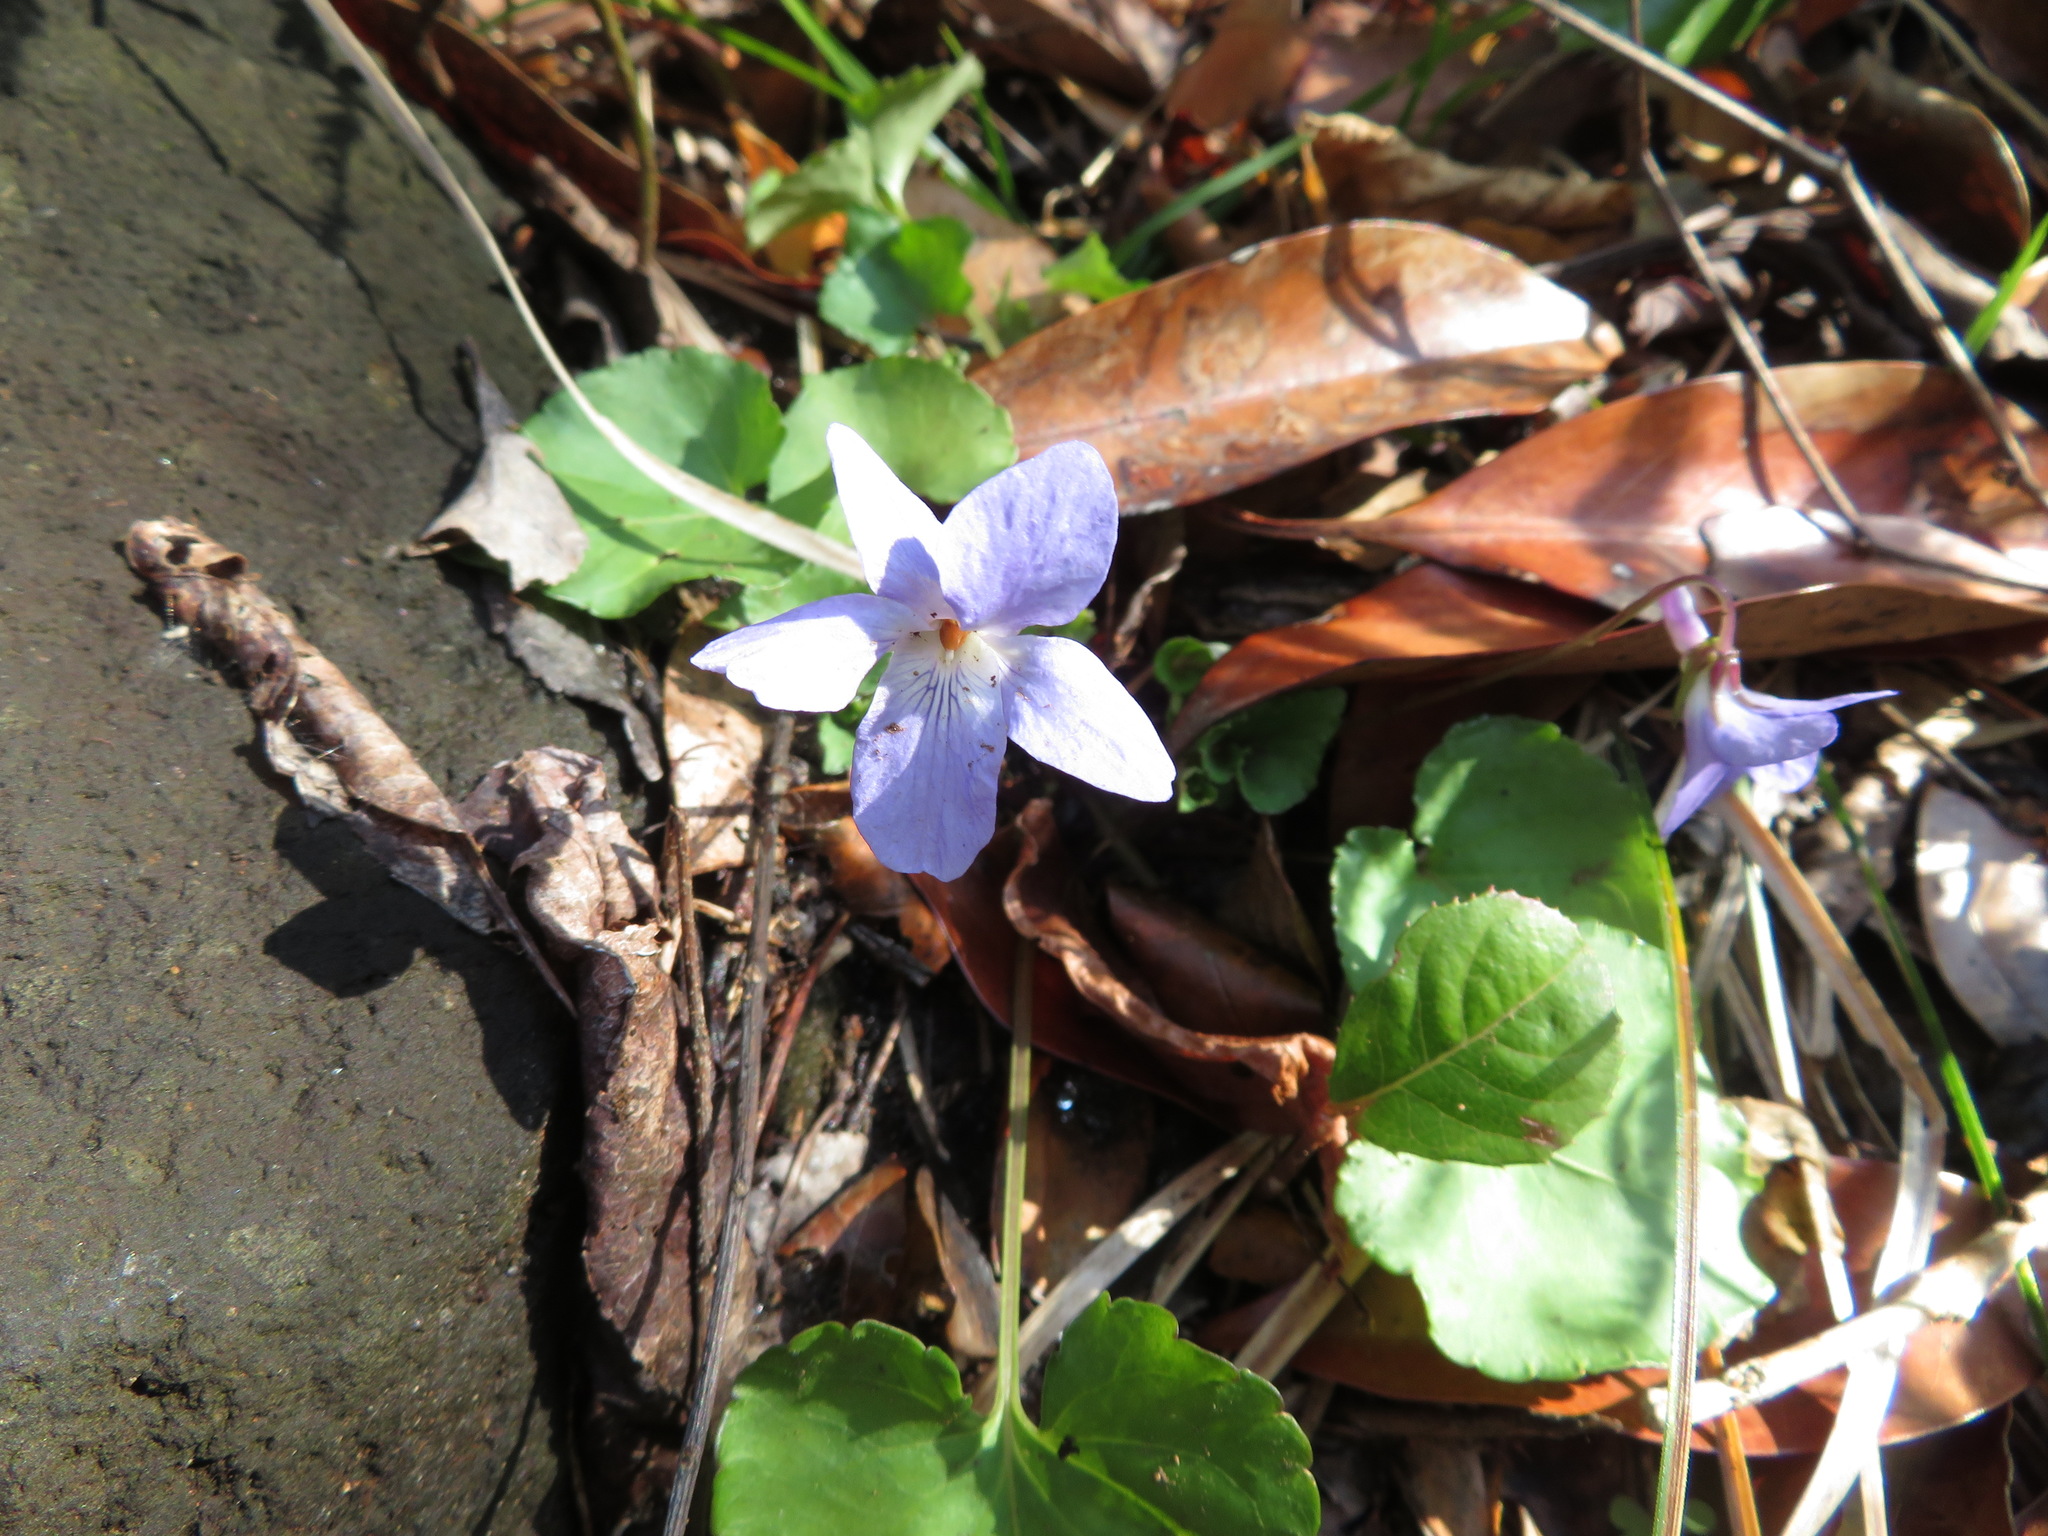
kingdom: Plantae
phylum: Tracheophyta
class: Magnoliopsida
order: Malpighiales
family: Violaceae
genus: Viola
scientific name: Viola grypoceras
